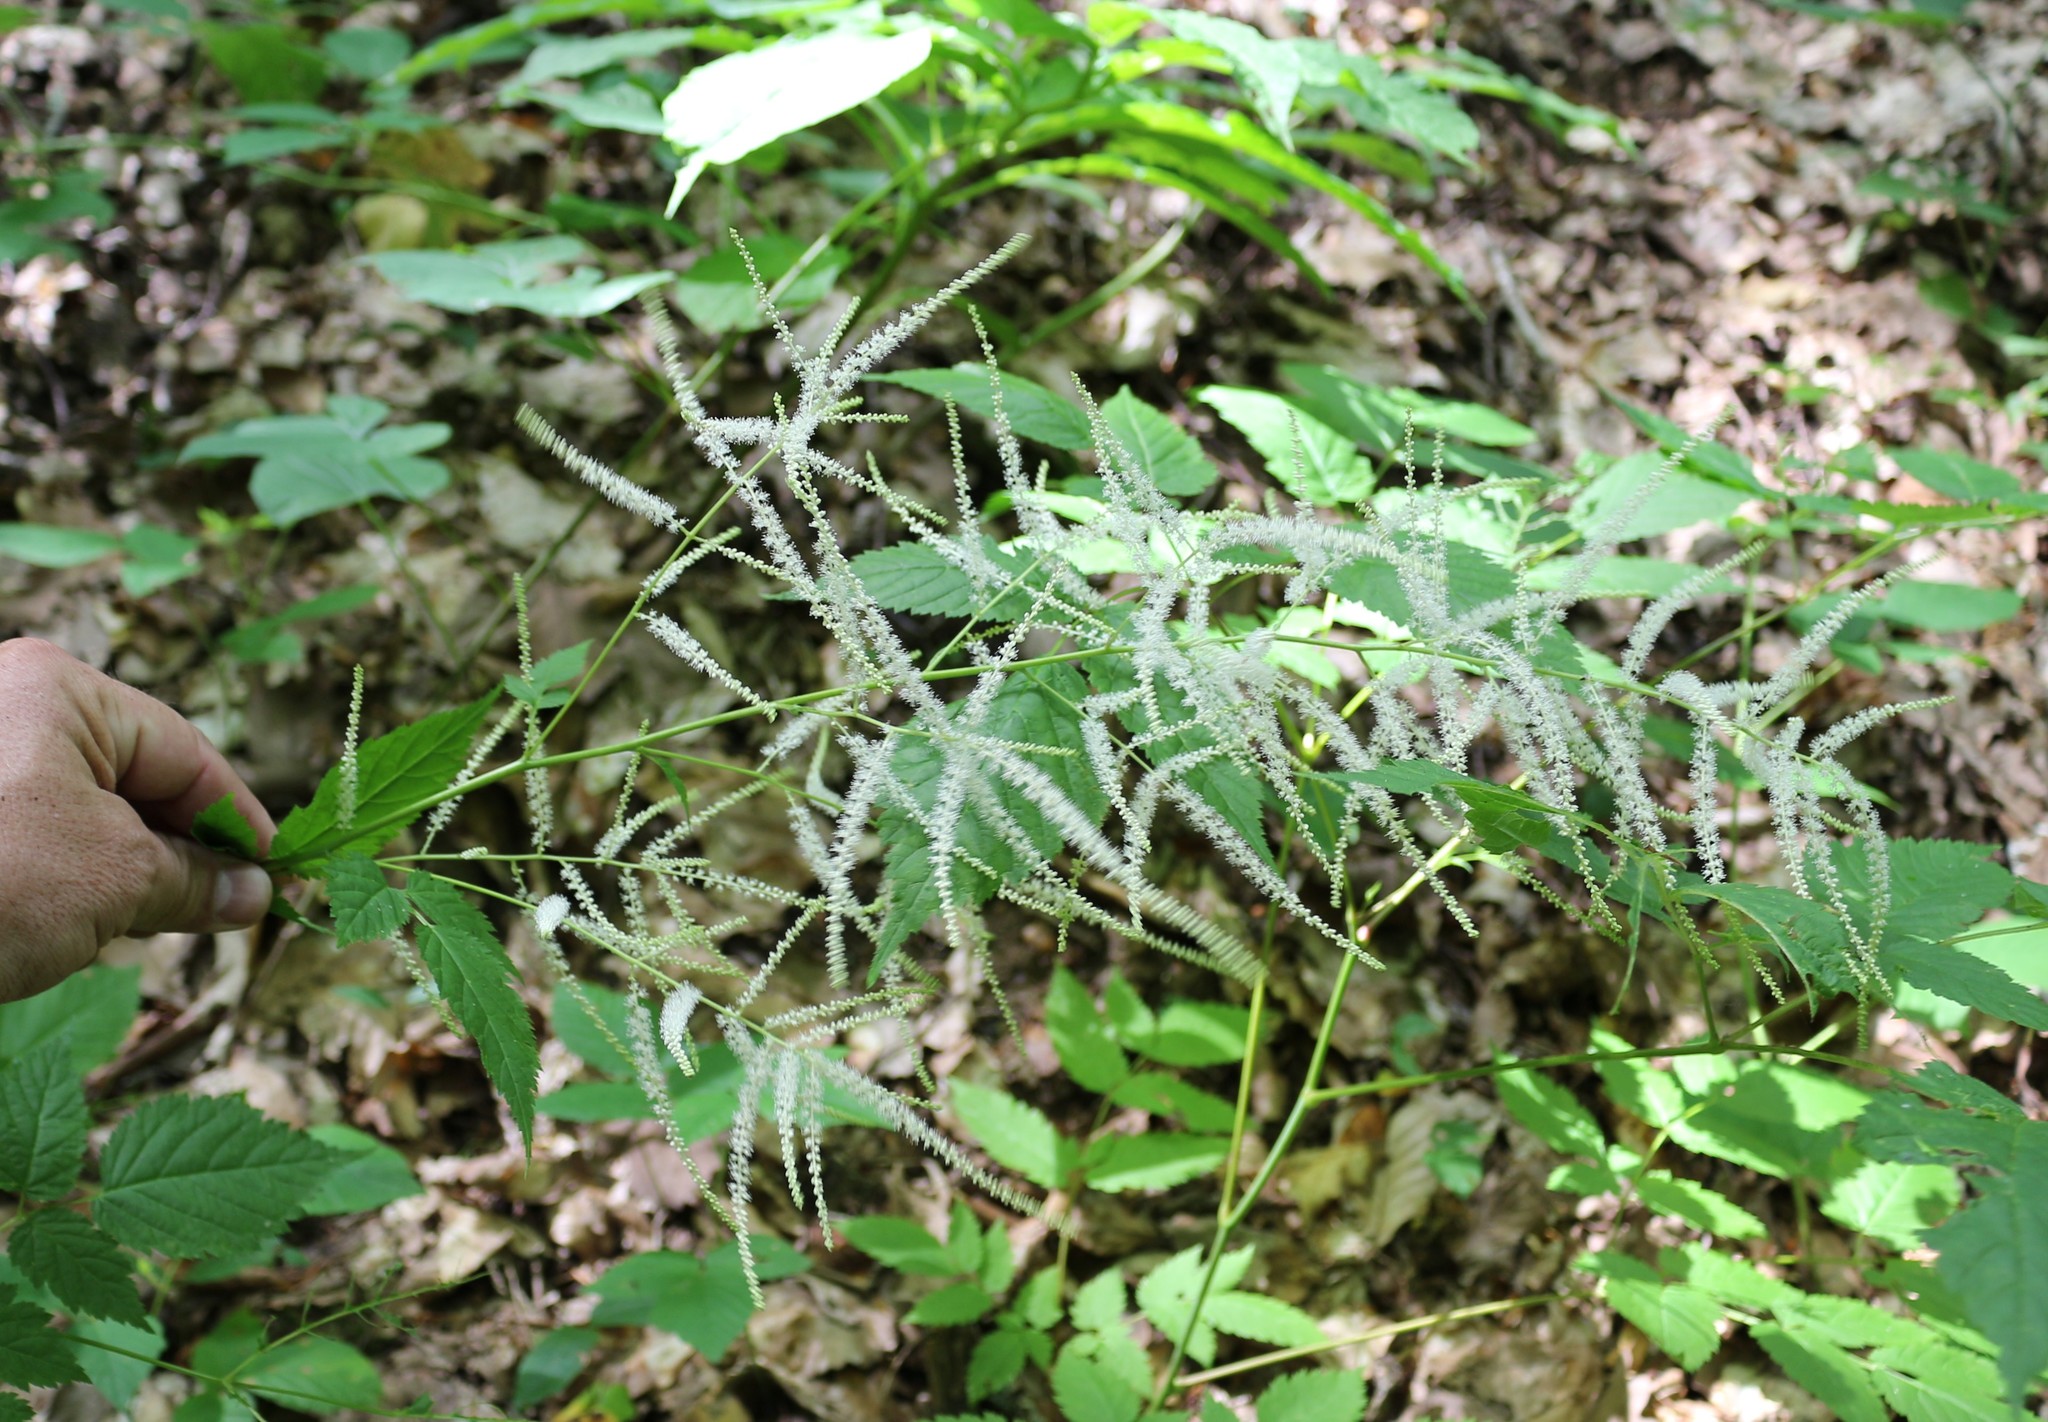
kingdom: Plantae
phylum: Tracheophyta
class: Magnoliopsida
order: Rosales
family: Rosaceae
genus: Aruncus
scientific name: Aruncus sylvester
